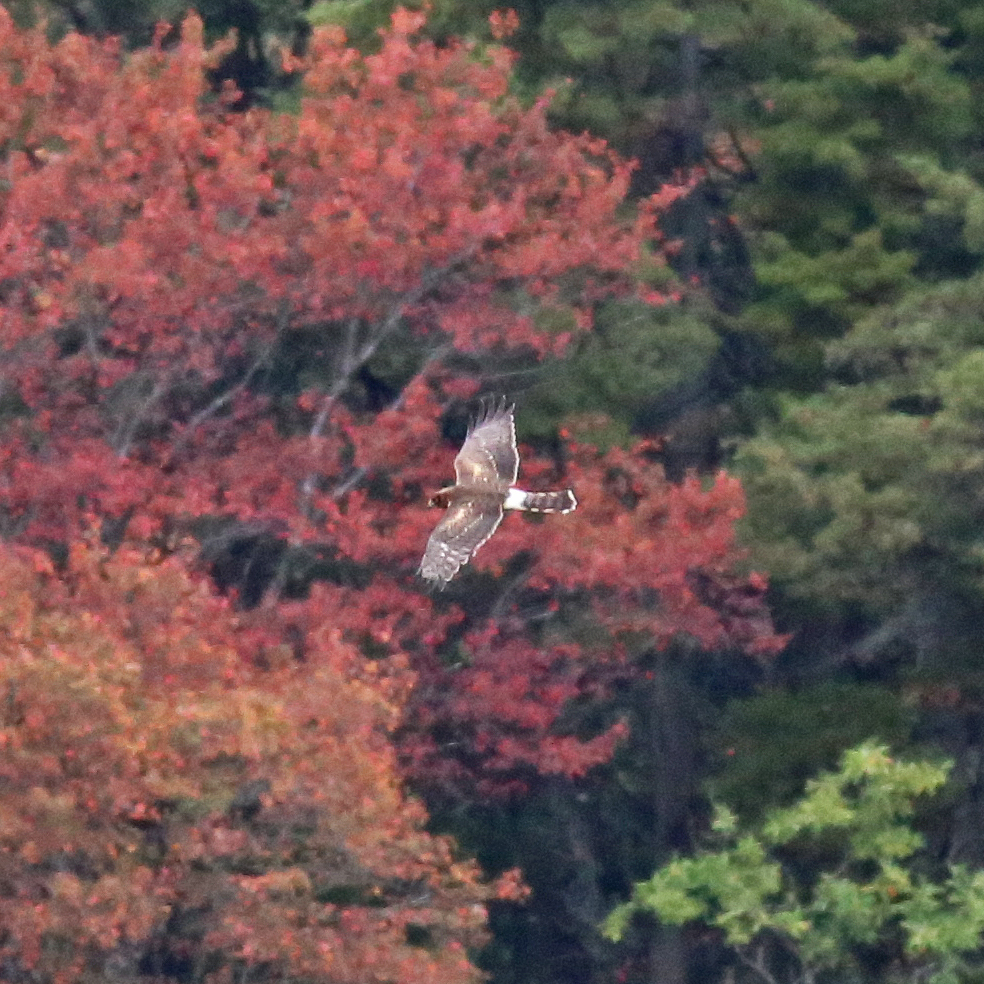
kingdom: Animalia
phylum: Chordata
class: Aves
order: Accipitriformes
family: Accipitridae
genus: Circus
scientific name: Circus cyaneus
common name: Hen harrier
